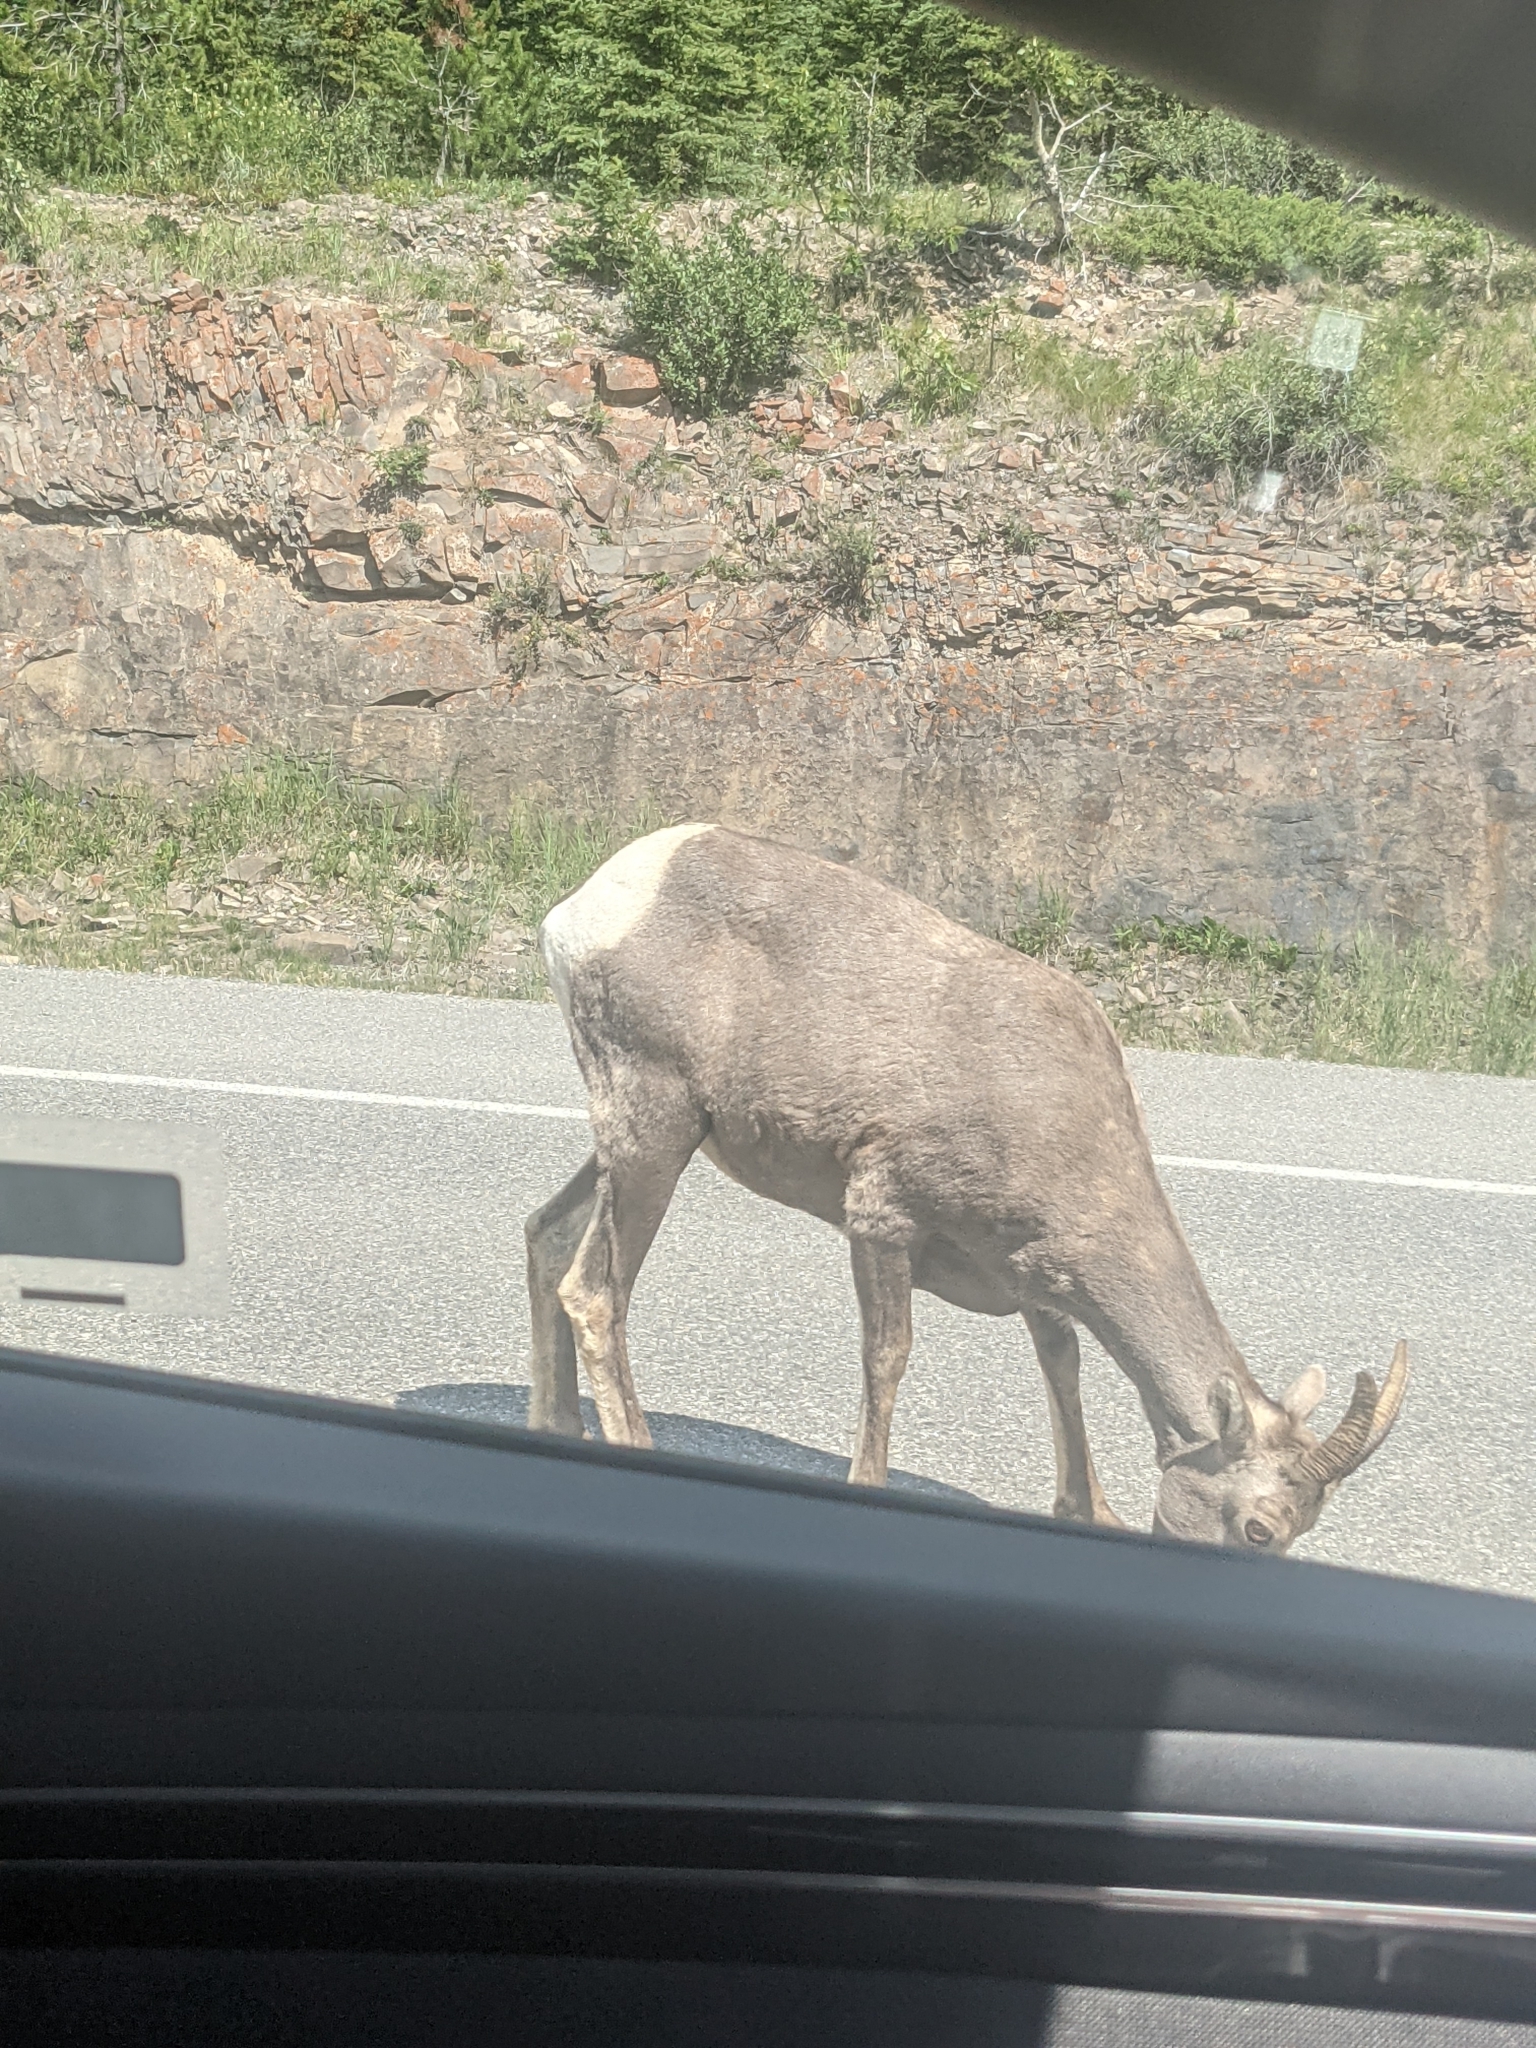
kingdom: Animalia
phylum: Chordata
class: Mammalia
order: Artiodactyla
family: Bovidae
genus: Ovis
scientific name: Ovis canadensis
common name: Bighorn sheep
